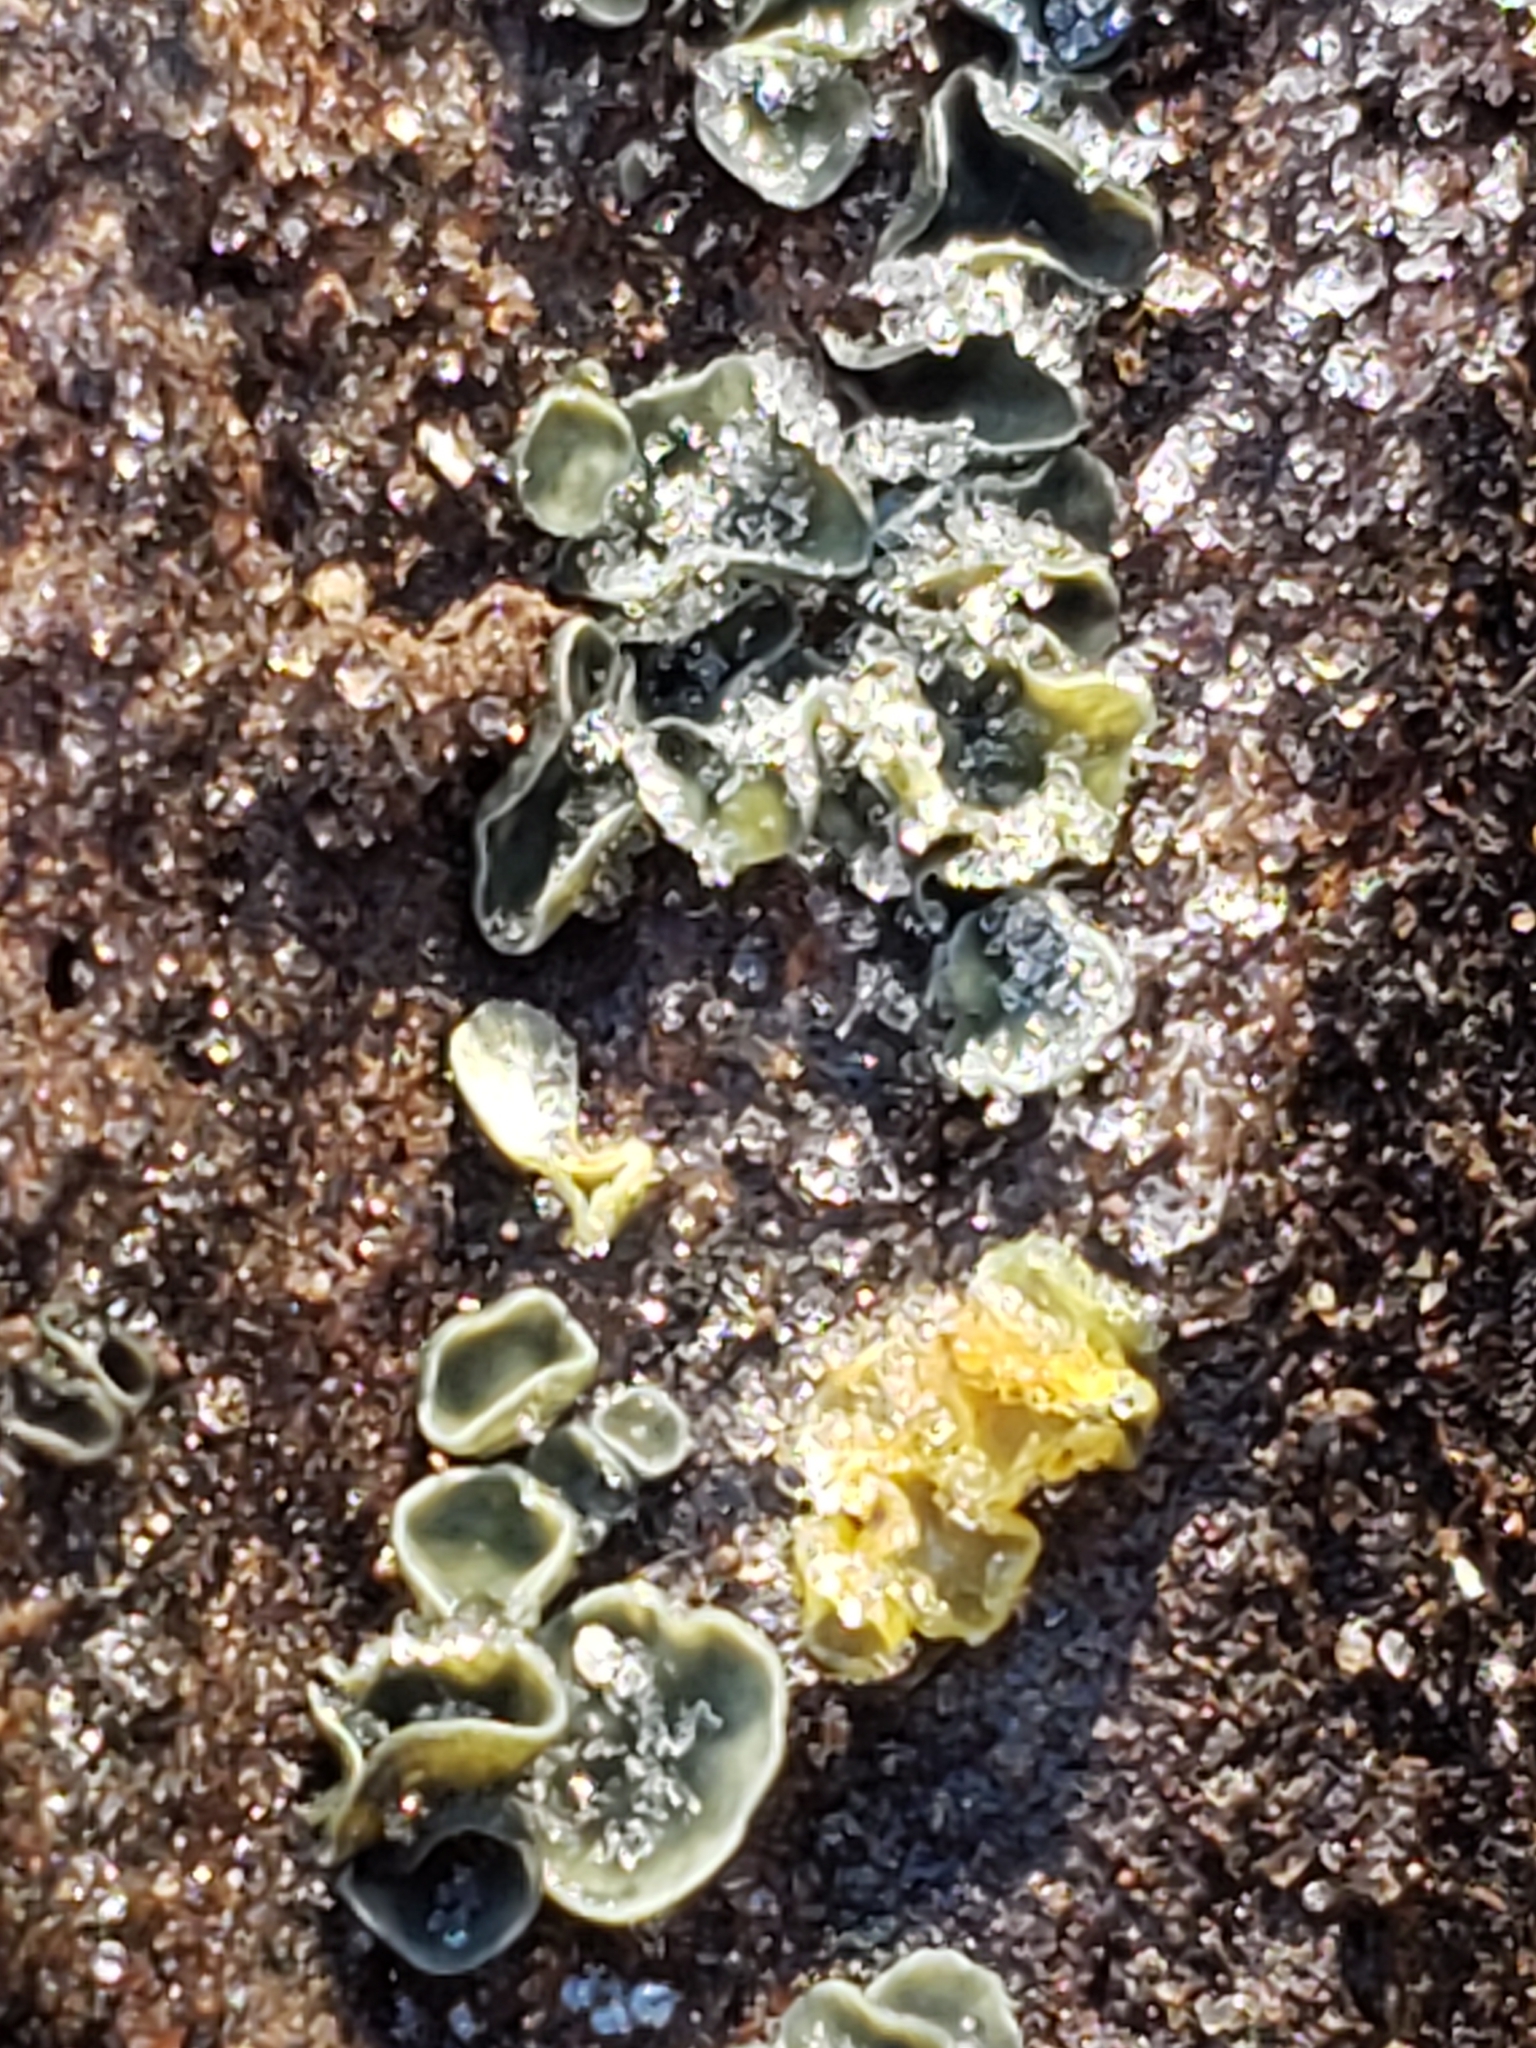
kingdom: Fungi
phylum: Ascomycota
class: Leotiomycetes
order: Helotiales
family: Chlorospleniaceae
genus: Chlorosplenium
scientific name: Chlorosplenium chlora
